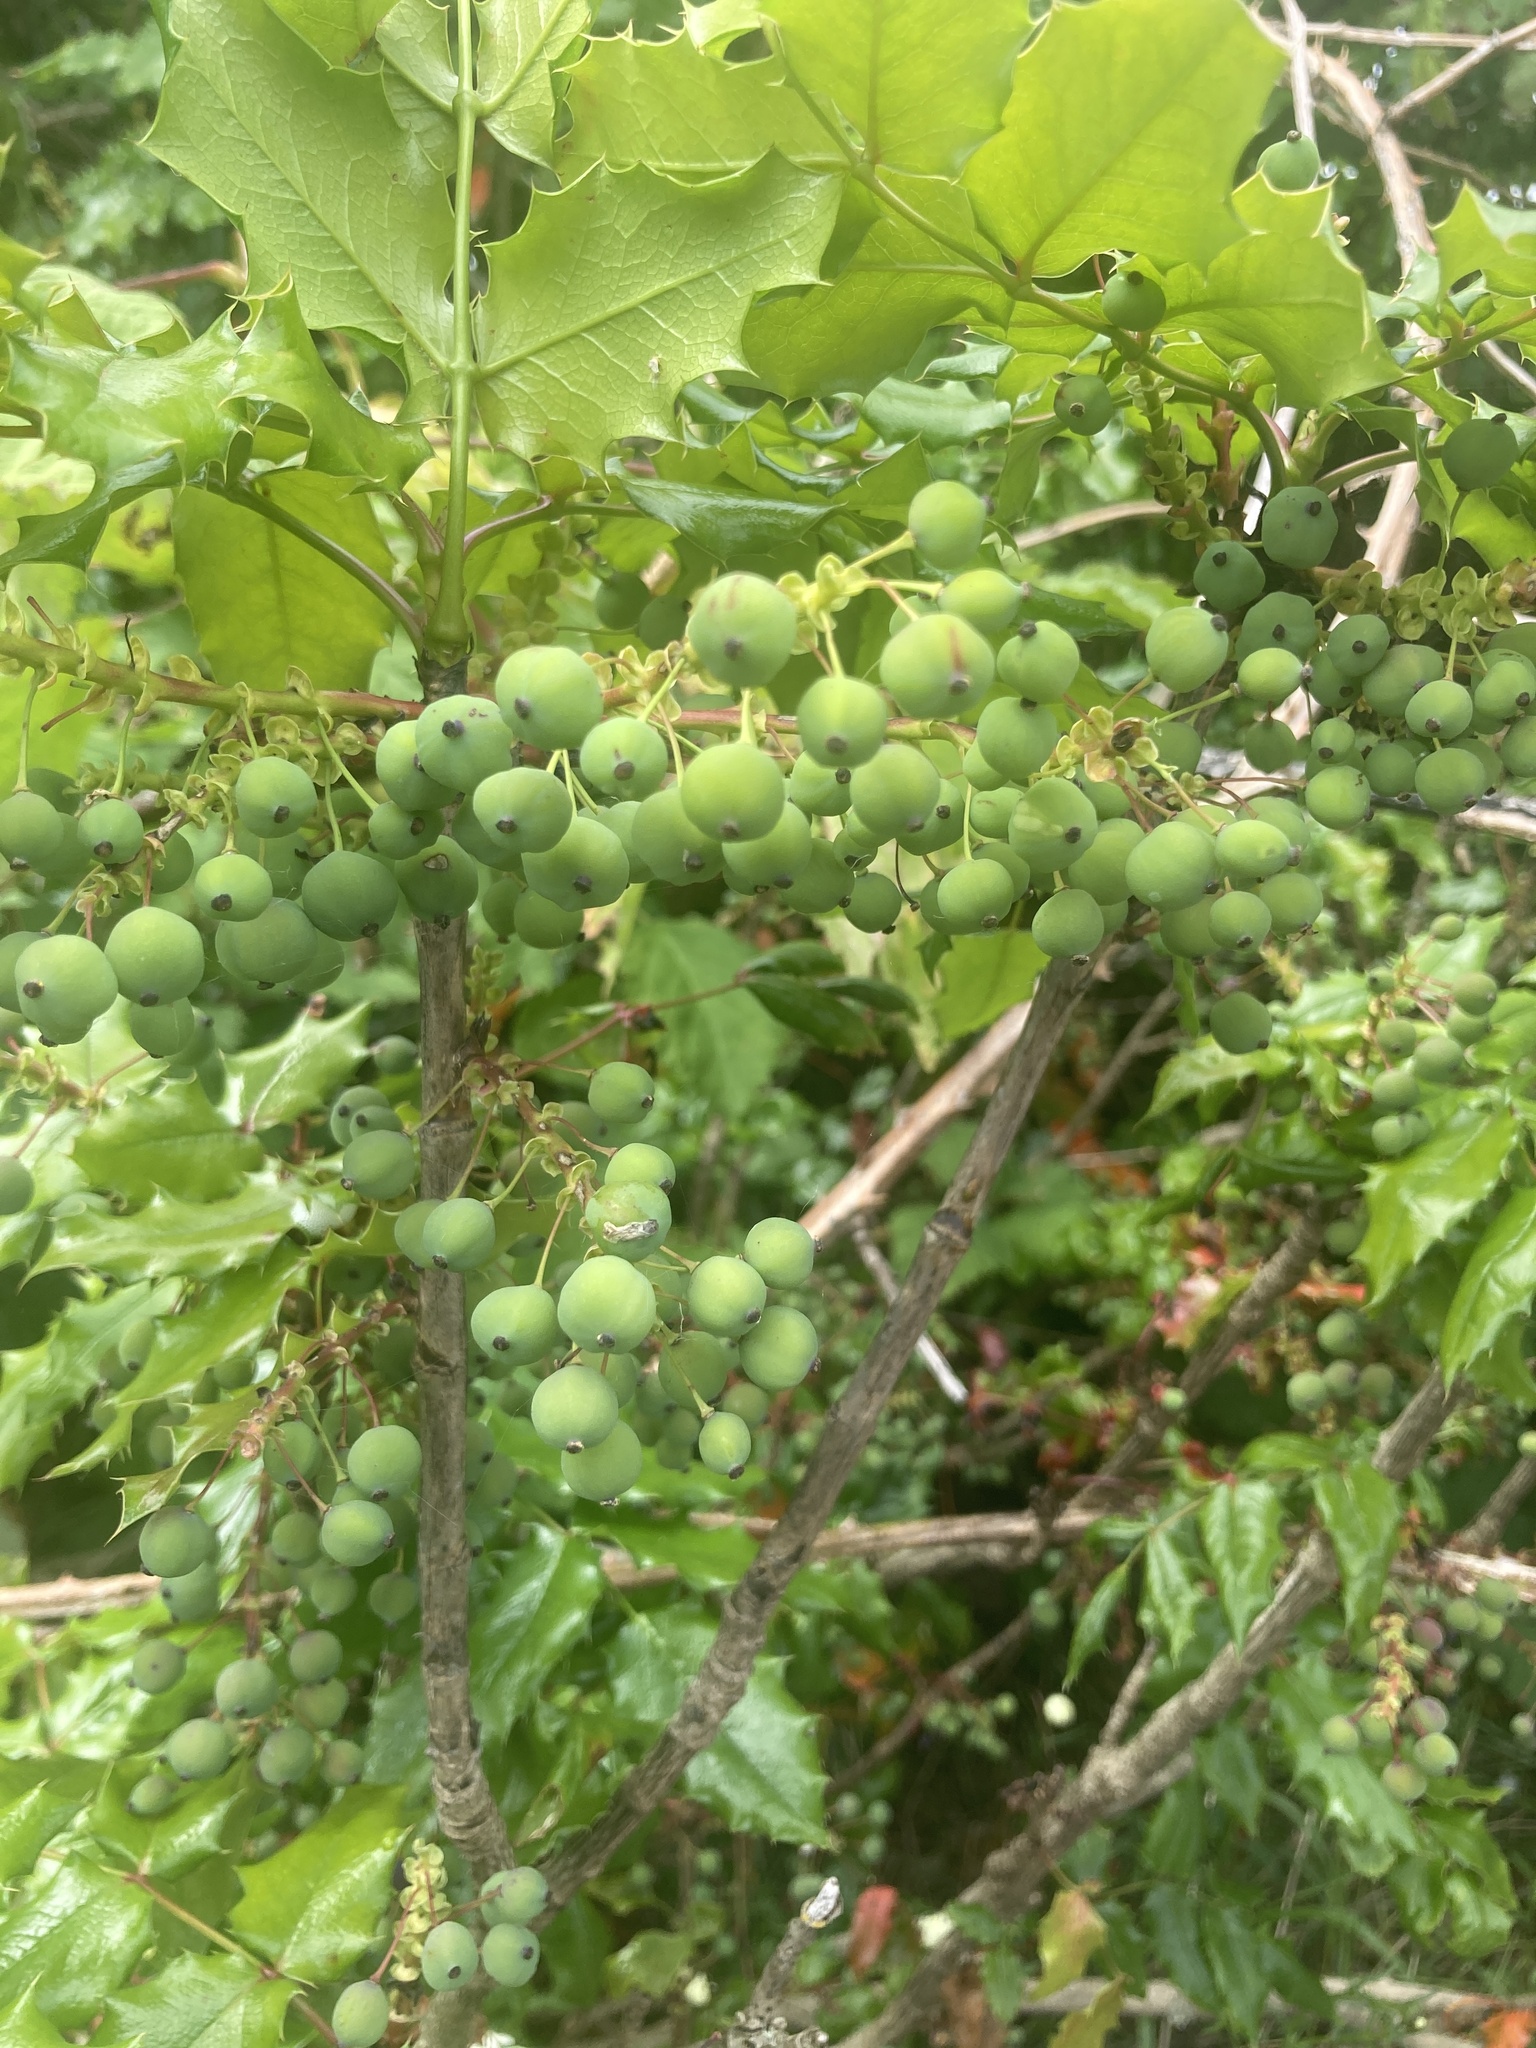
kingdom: Plantae
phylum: Tracheophyta
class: Magnoliopsida
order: Ranunculales
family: Berberidaceae
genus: Mahonia
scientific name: Mahonia aquifolium
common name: Oregon-grape
